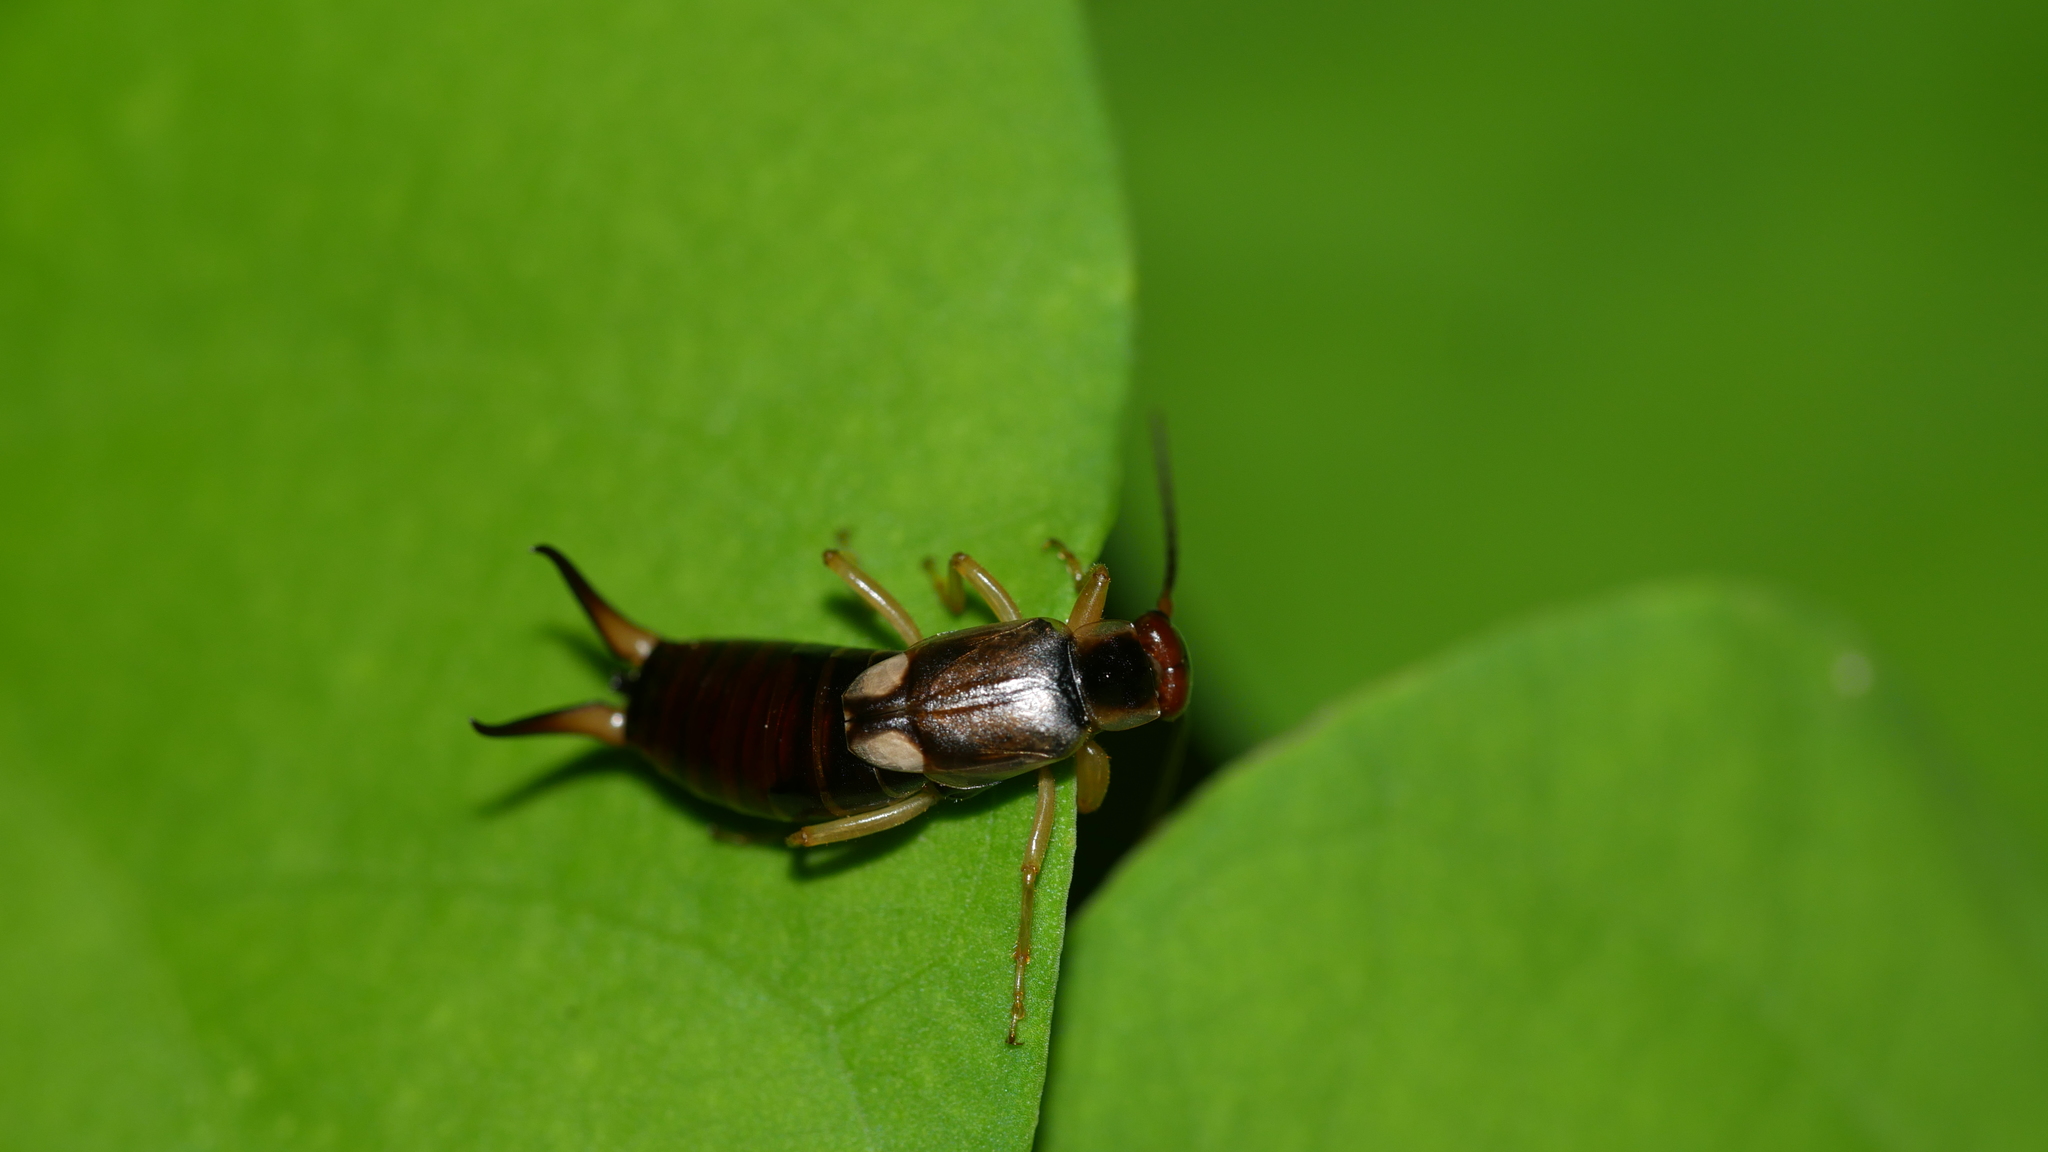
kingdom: Animalia
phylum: Arthropoda
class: Insecta
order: Dermaptera
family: Forficulidae
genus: Forficula
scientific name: Forficula
